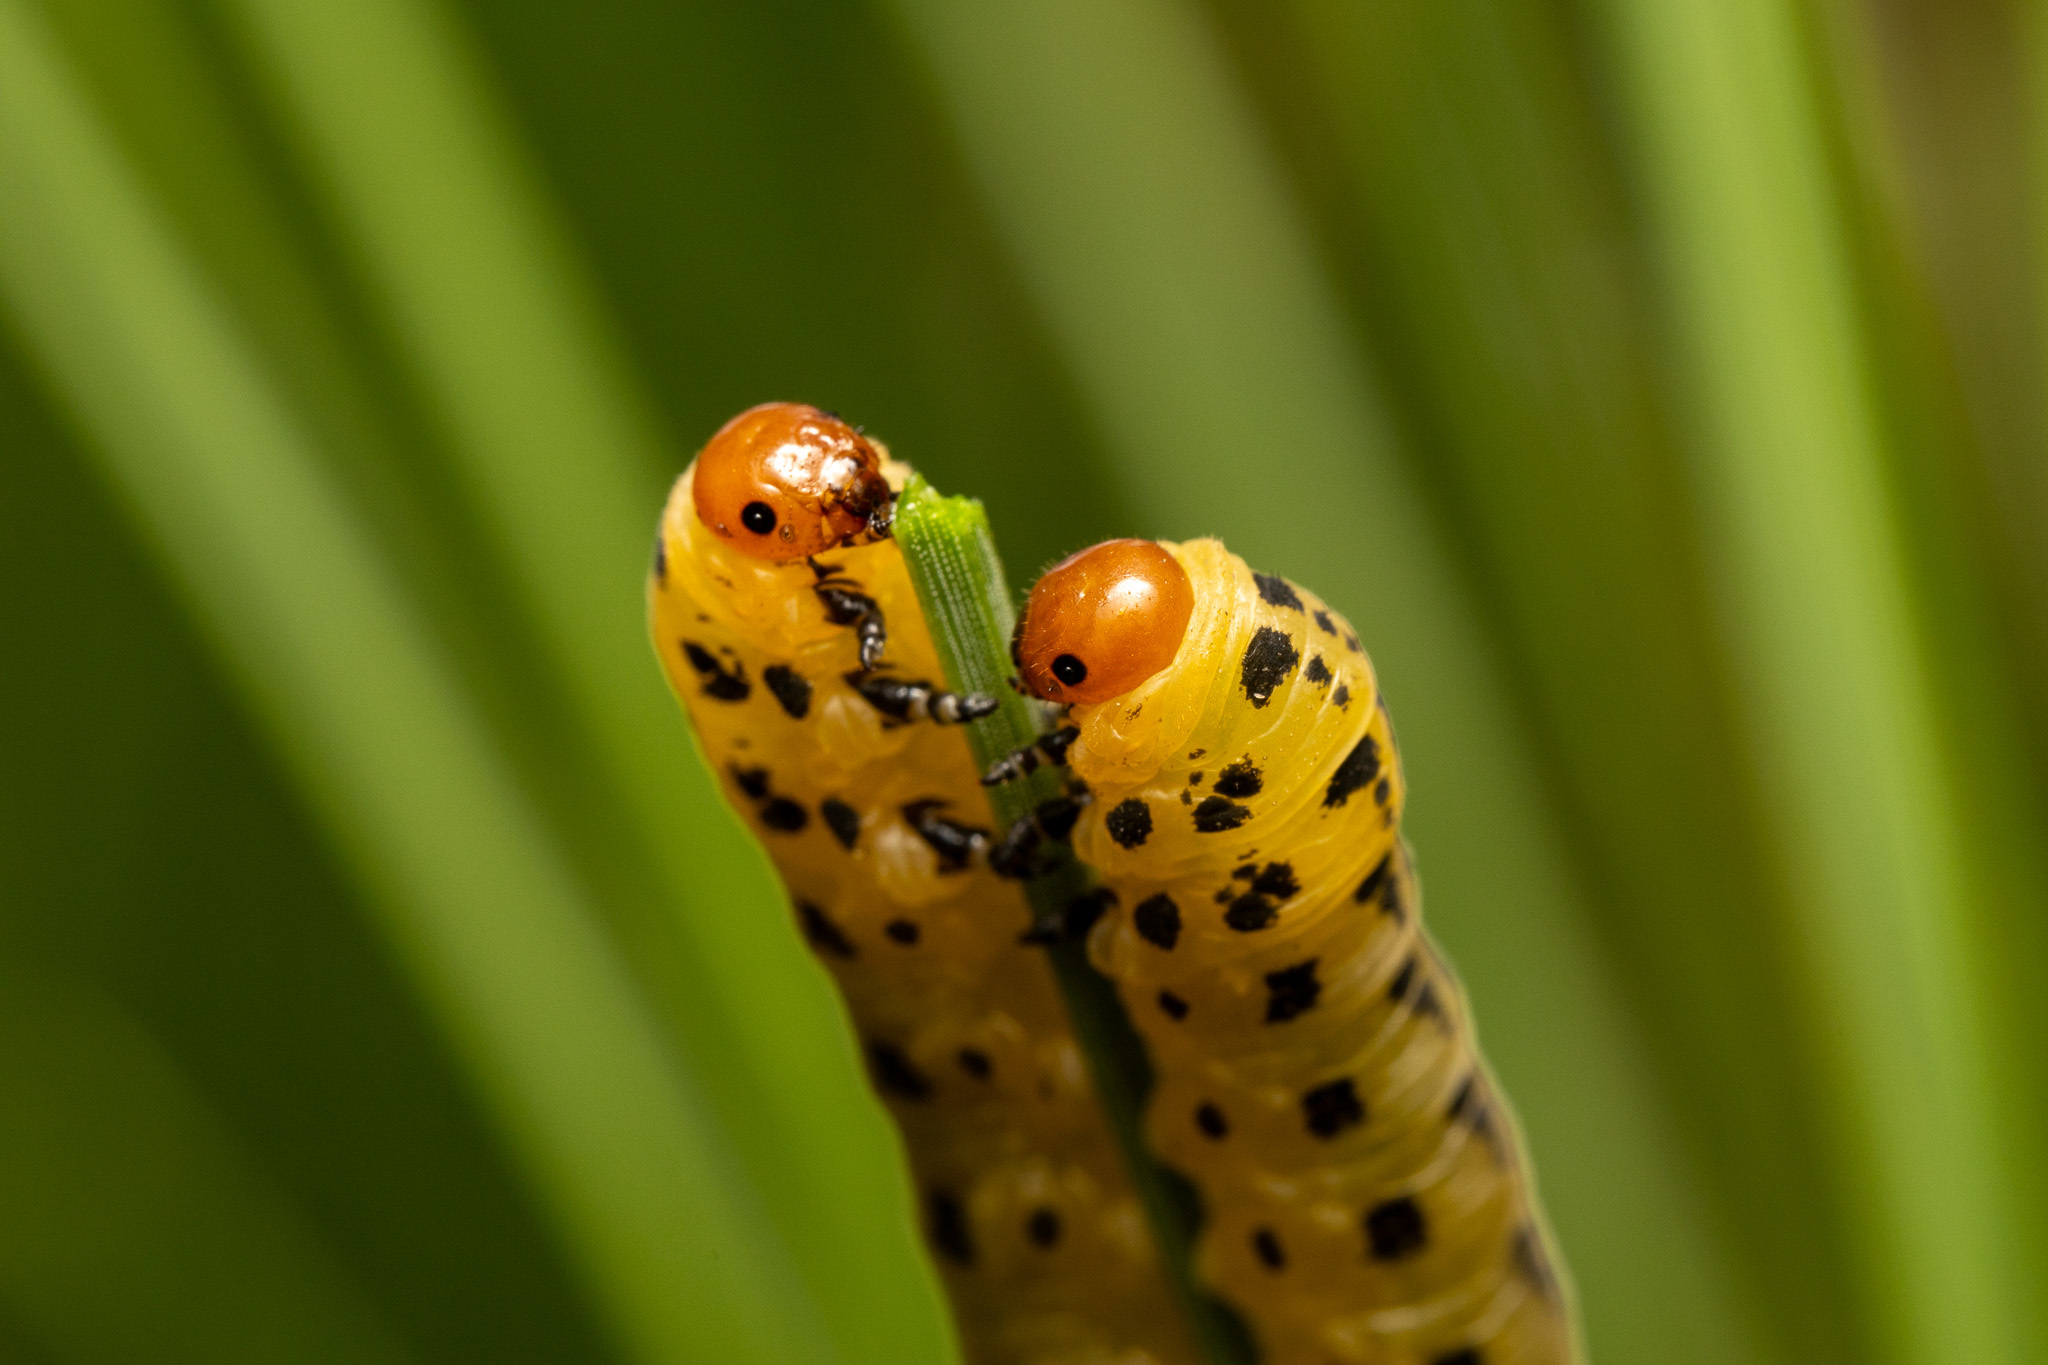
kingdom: Animalia
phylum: Arthropoda
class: Insecta
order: Hymenoptera
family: Diprionidae
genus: Neodiprion
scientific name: Neodiprion lecontei
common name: Redheaded pine sawfly
